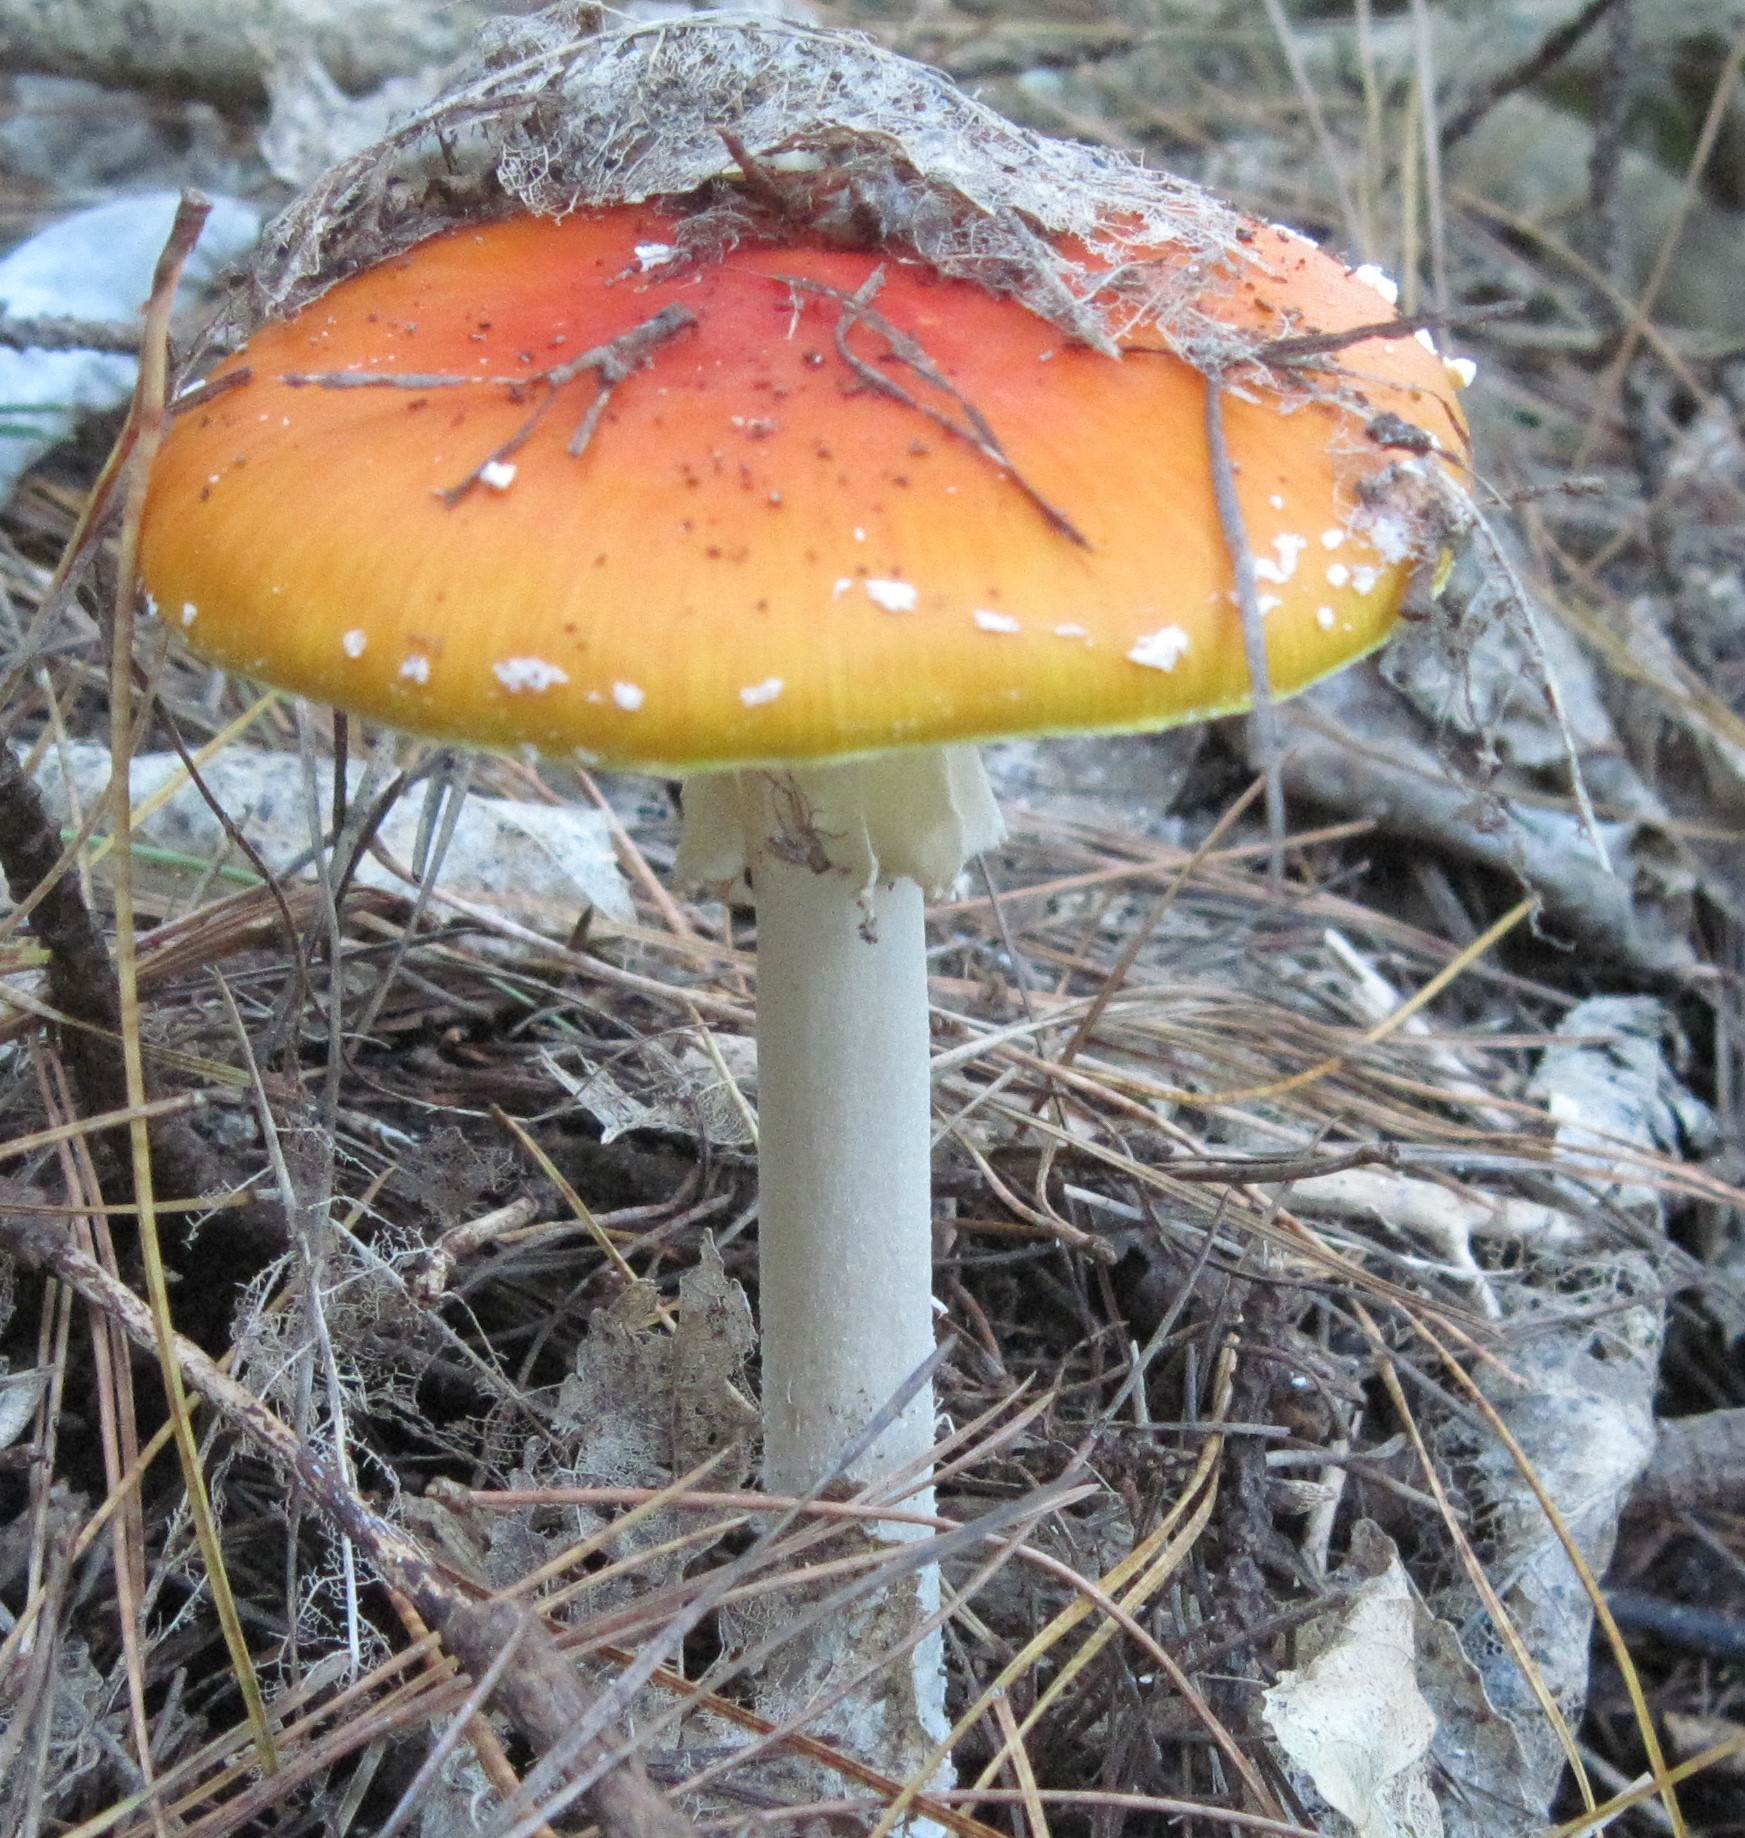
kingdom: Fungi
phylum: Basidiomycota
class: Agaricomycetes
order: Agaricales
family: Amanitaceae
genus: Amanita
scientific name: Amanita muscaria
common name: Fly agaric
